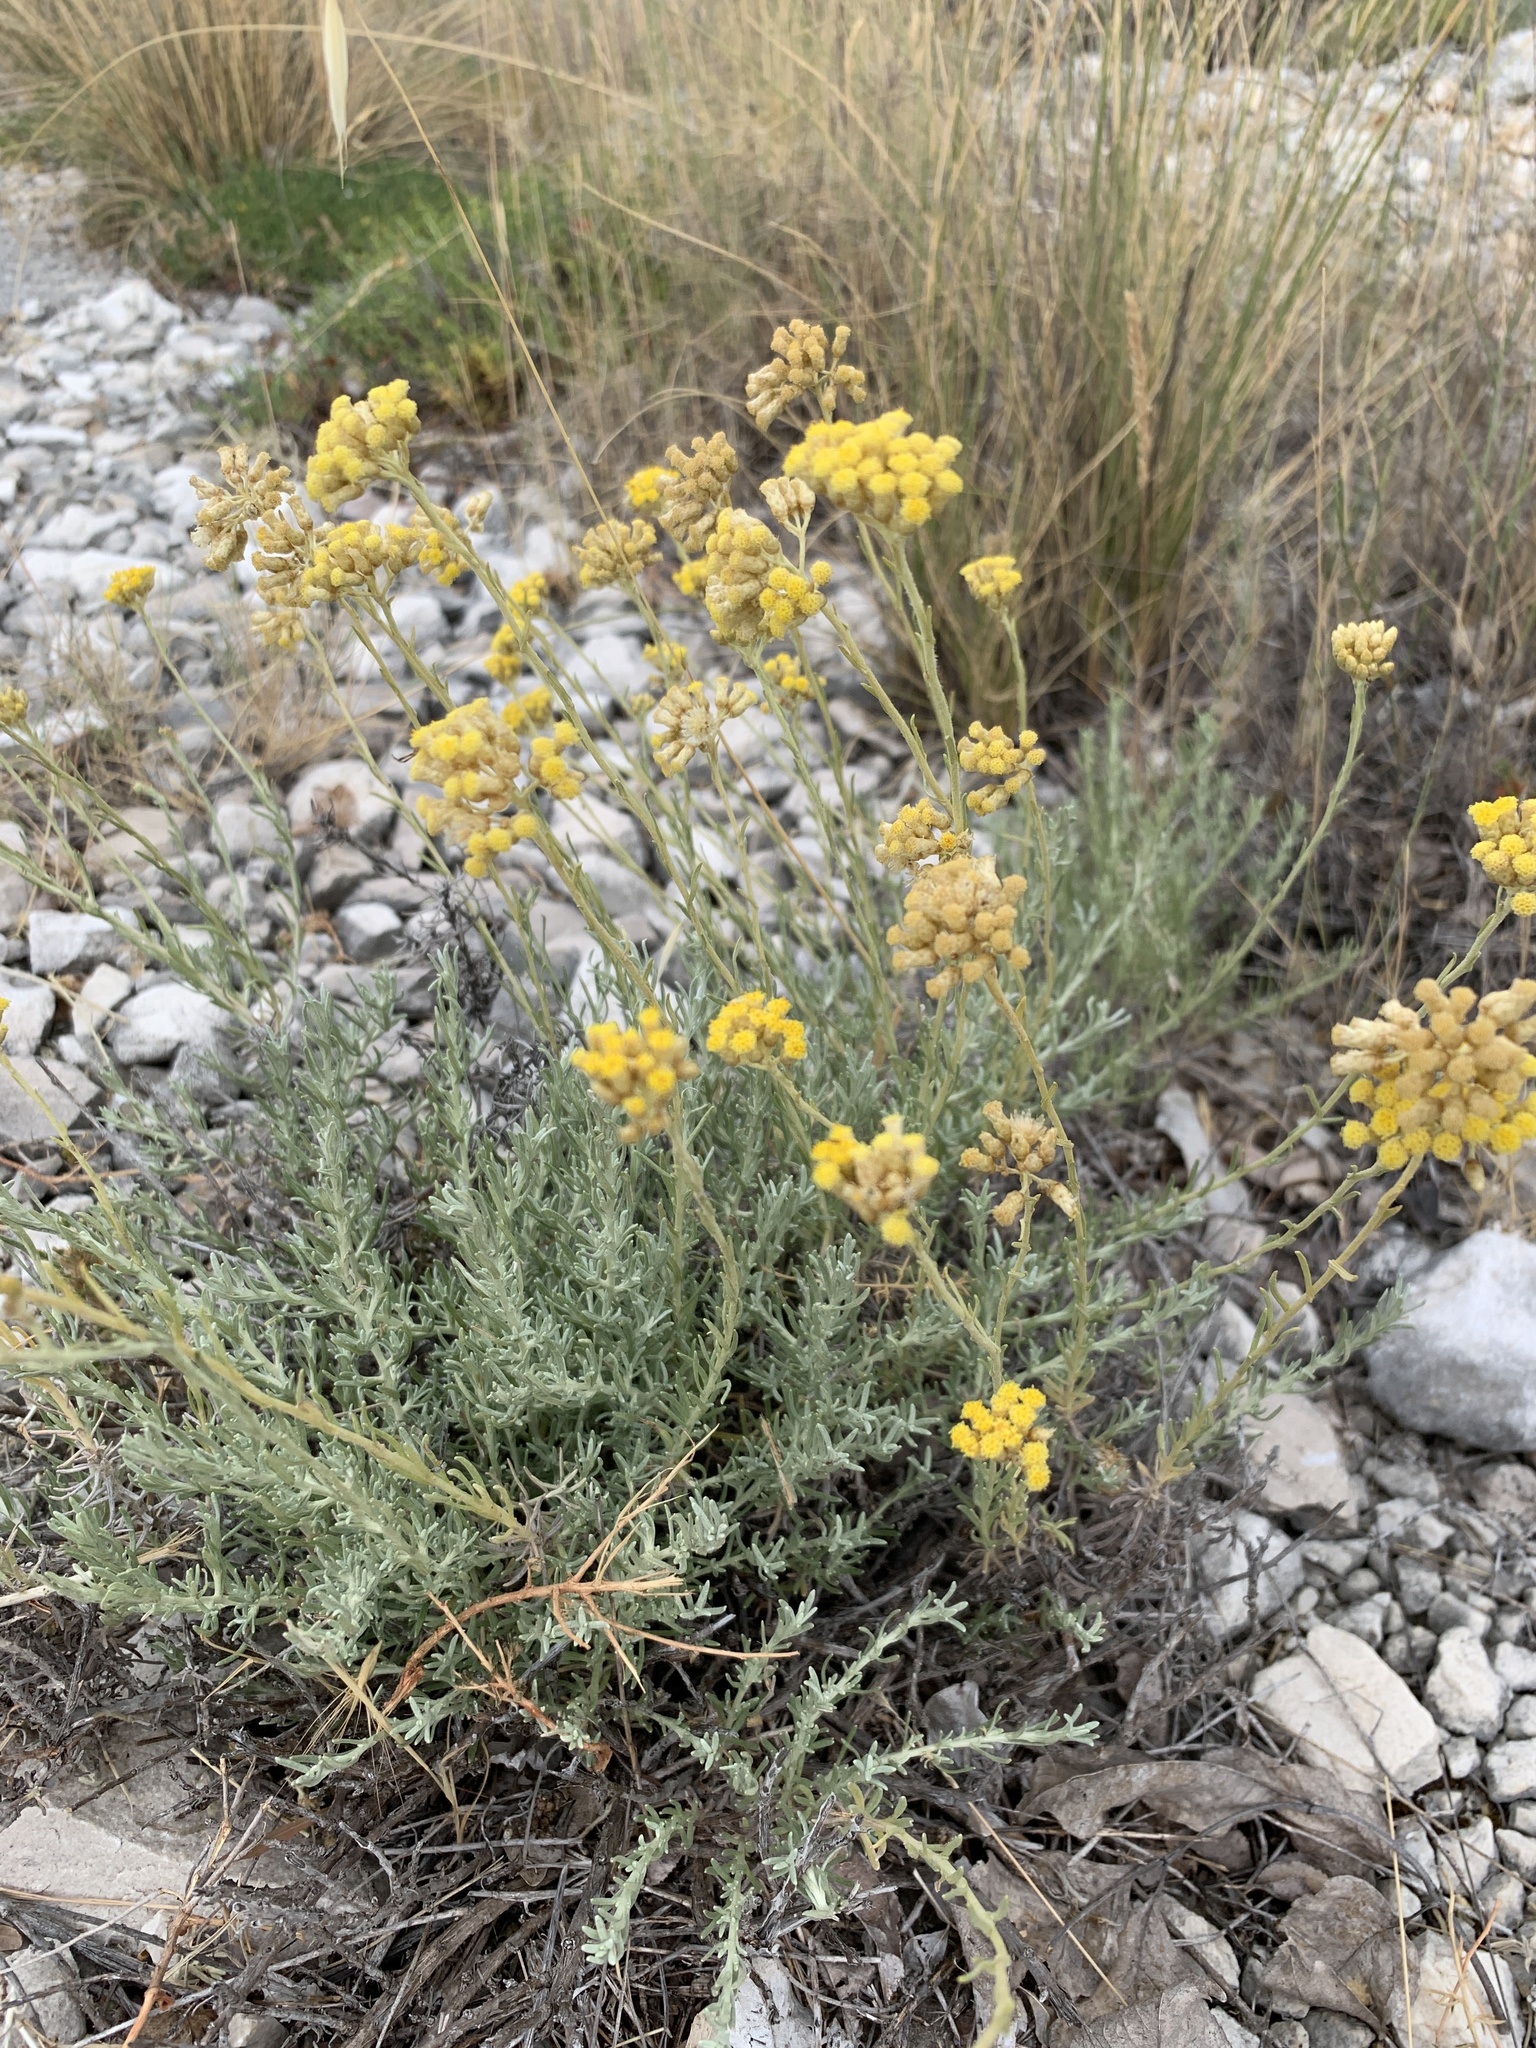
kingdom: Plantae
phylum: Tracheophyta
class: Magnoliopsida
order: Asterales
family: Asteraceae
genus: Helichrysum
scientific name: Helichrysum italicum
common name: Curryplant
